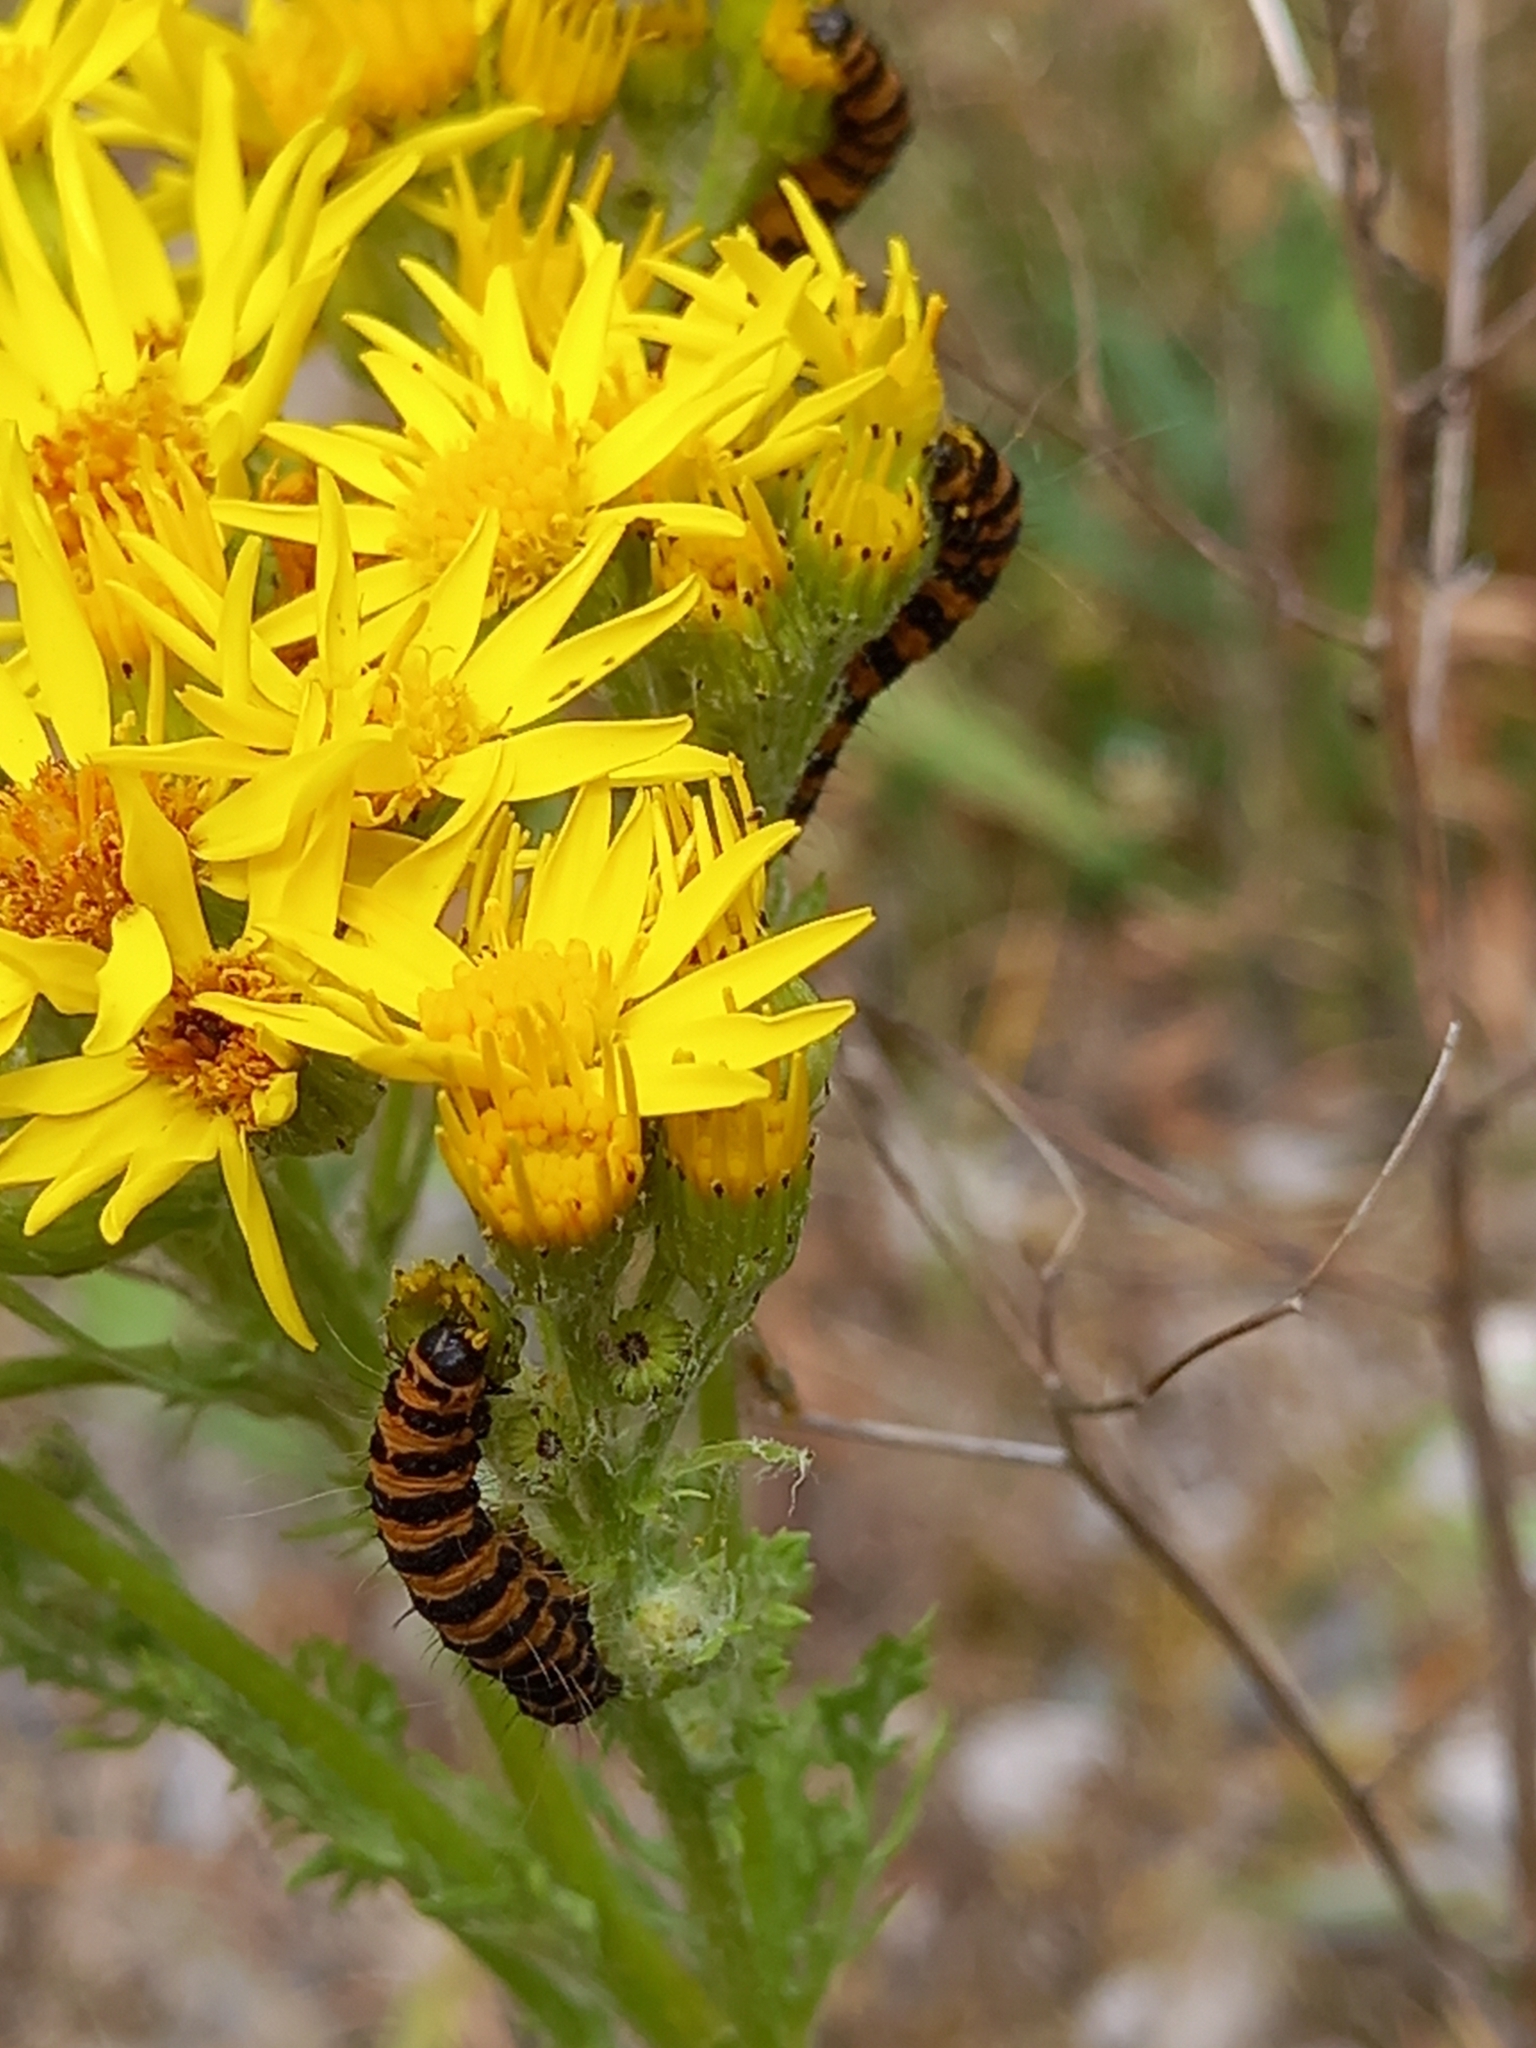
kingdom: Animalia
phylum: Arthropoda
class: Insecta
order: Lepidoptera
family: Erebidae
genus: Tyria
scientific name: Tyria jacobaeae
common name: Cinnabar
